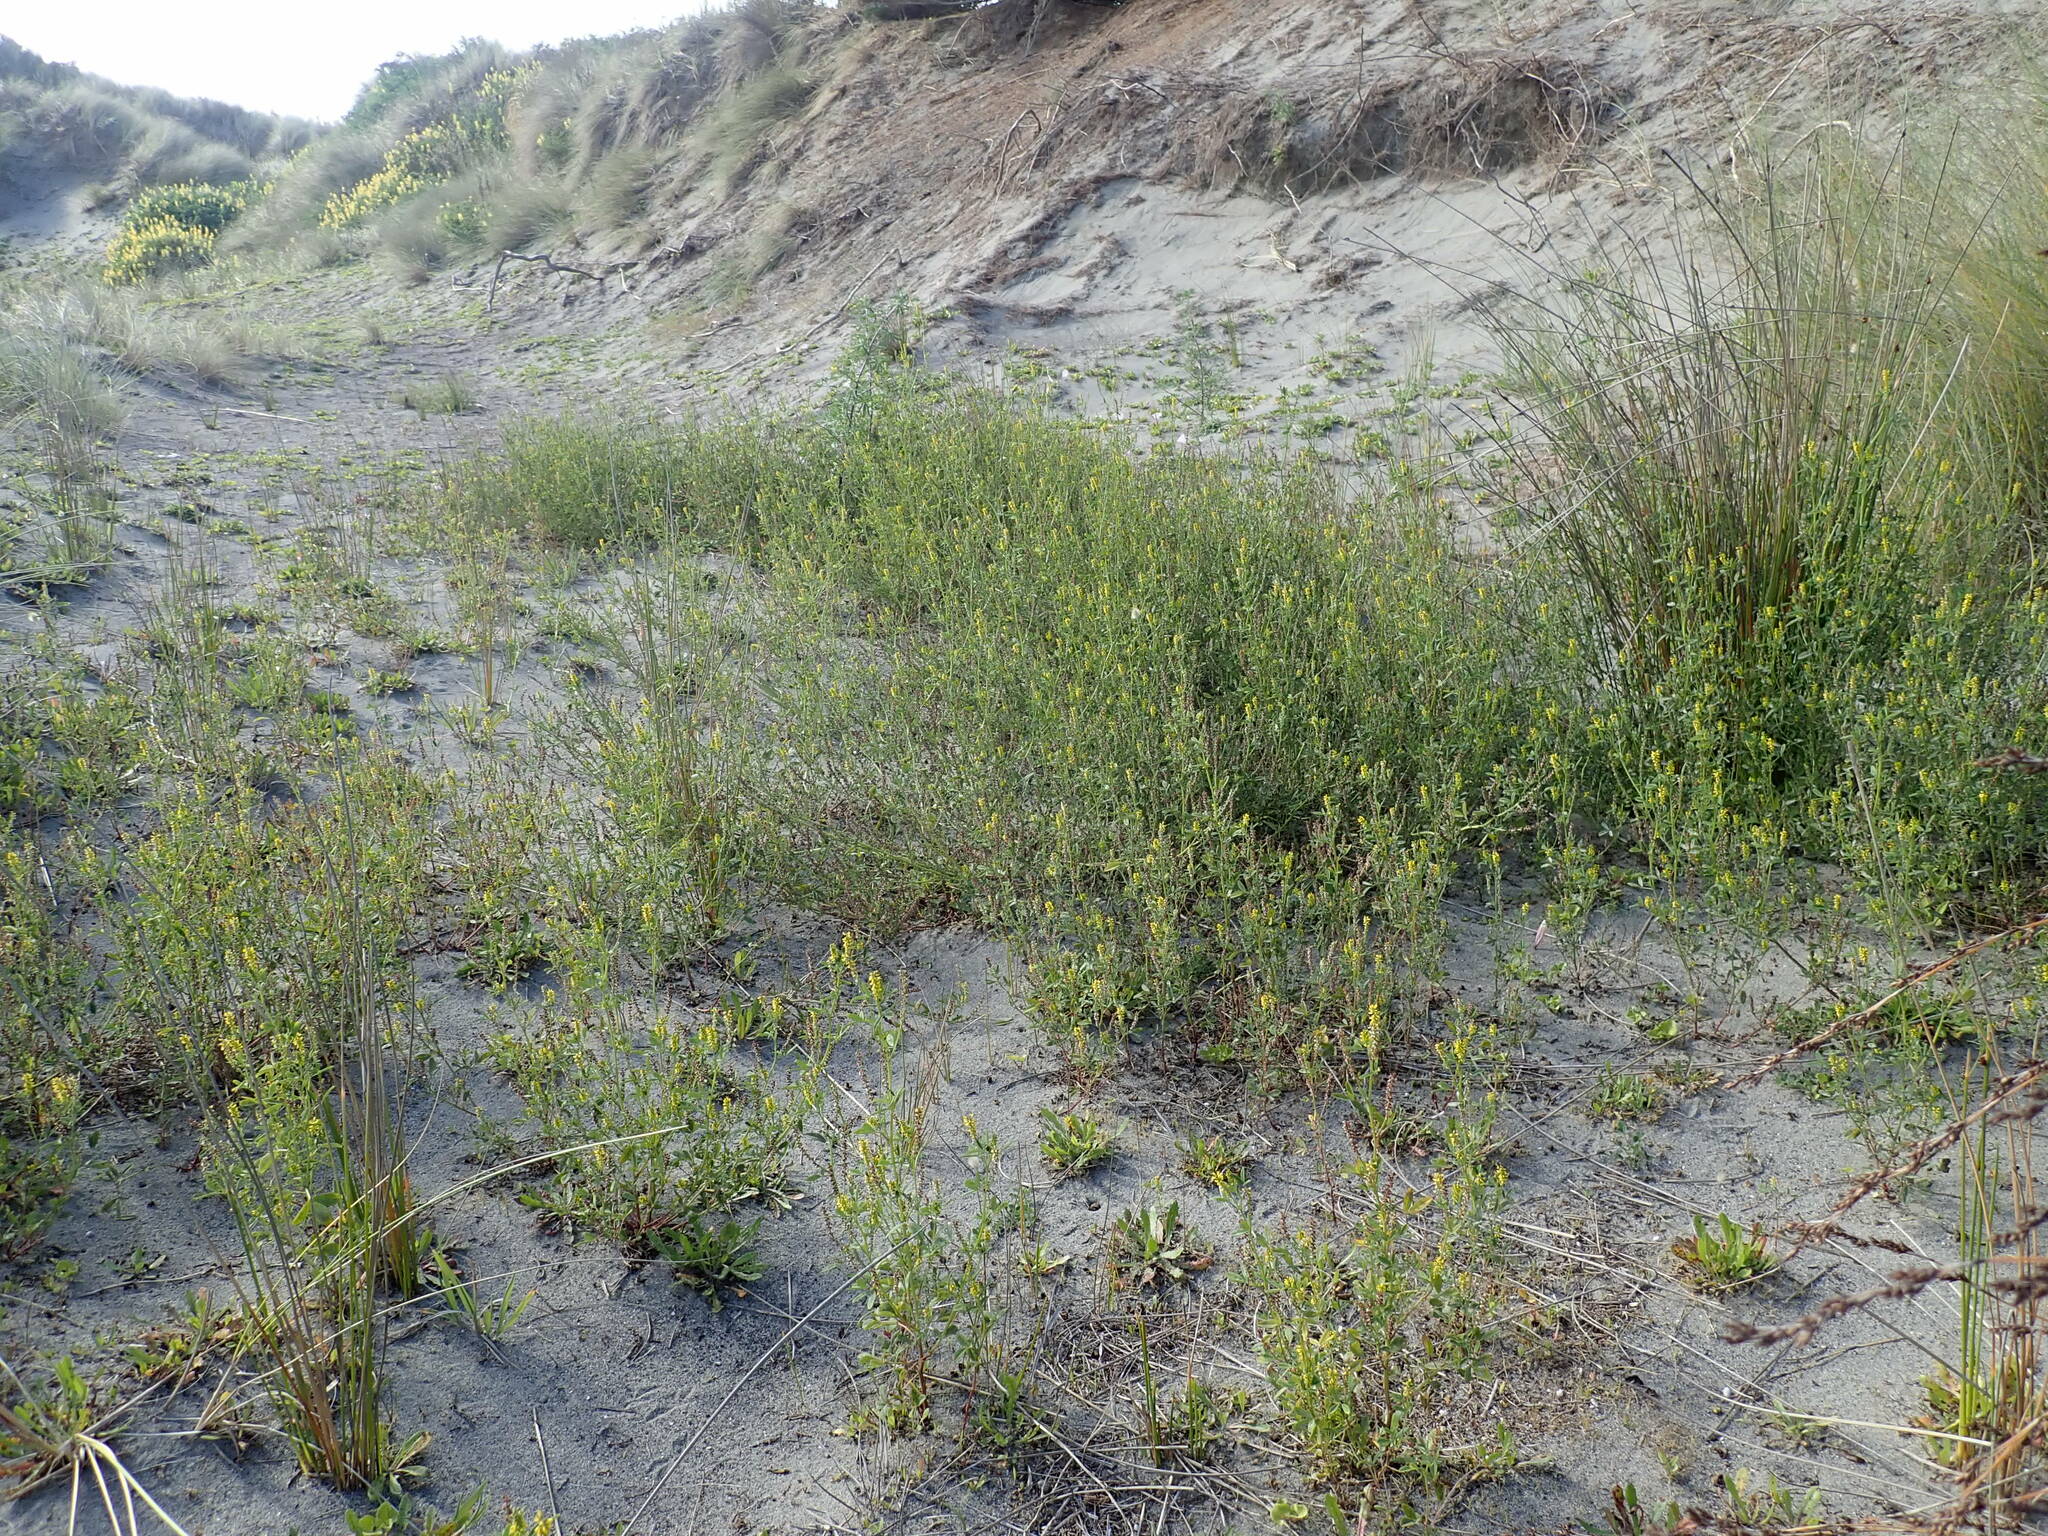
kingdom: Plantae
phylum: Tracheophyta
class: Magnoliopsida
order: Fabales
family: Fabaceae
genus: Melilotus
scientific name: Melilotus indicus
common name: Small melilot
